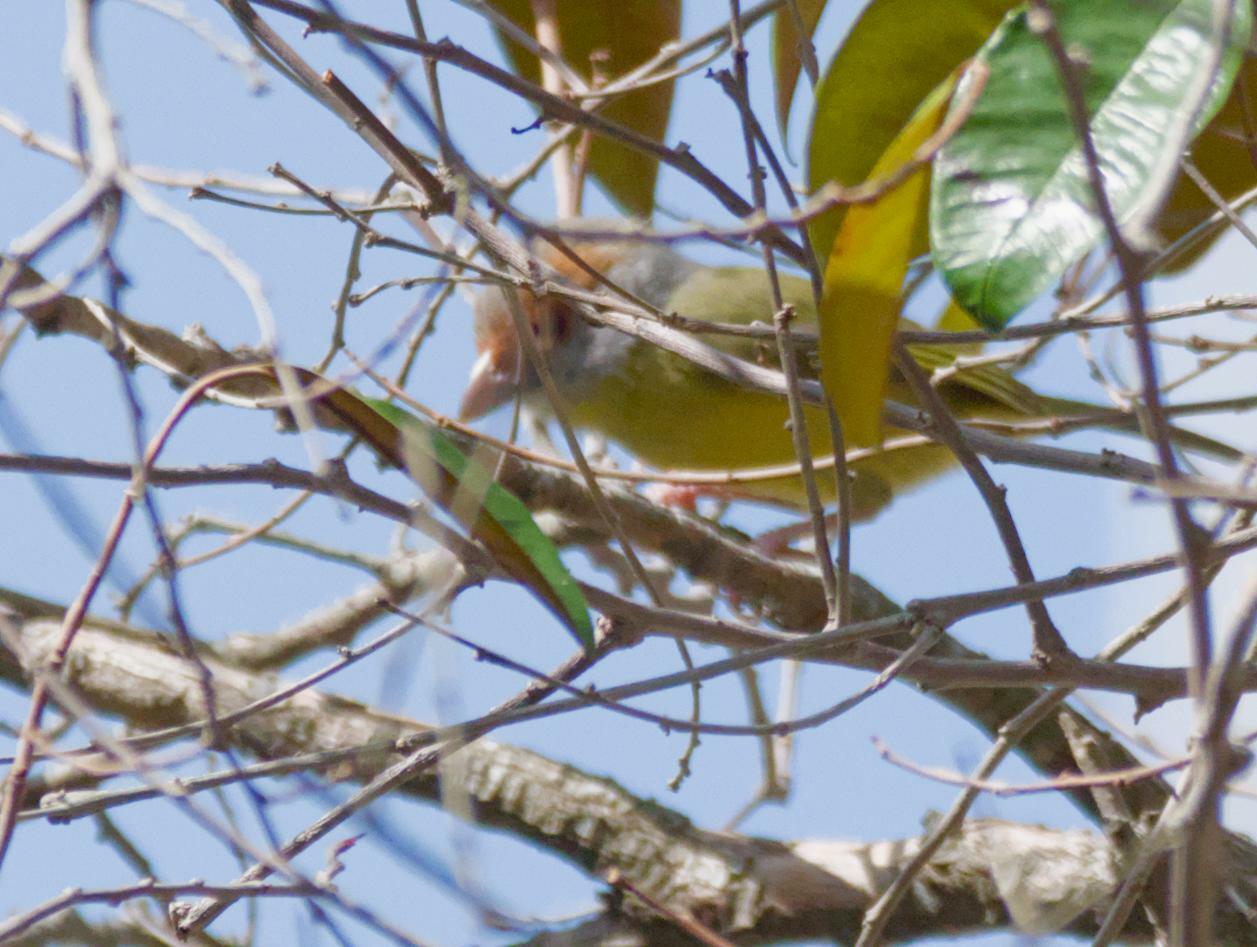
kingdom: Animalia
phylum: Chordata
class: Aves
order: Passeriformes
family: Vireonidae
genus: Cyclarhis
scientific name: Cyclarhis gujanensis
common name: Rufous-browed peppershrike
